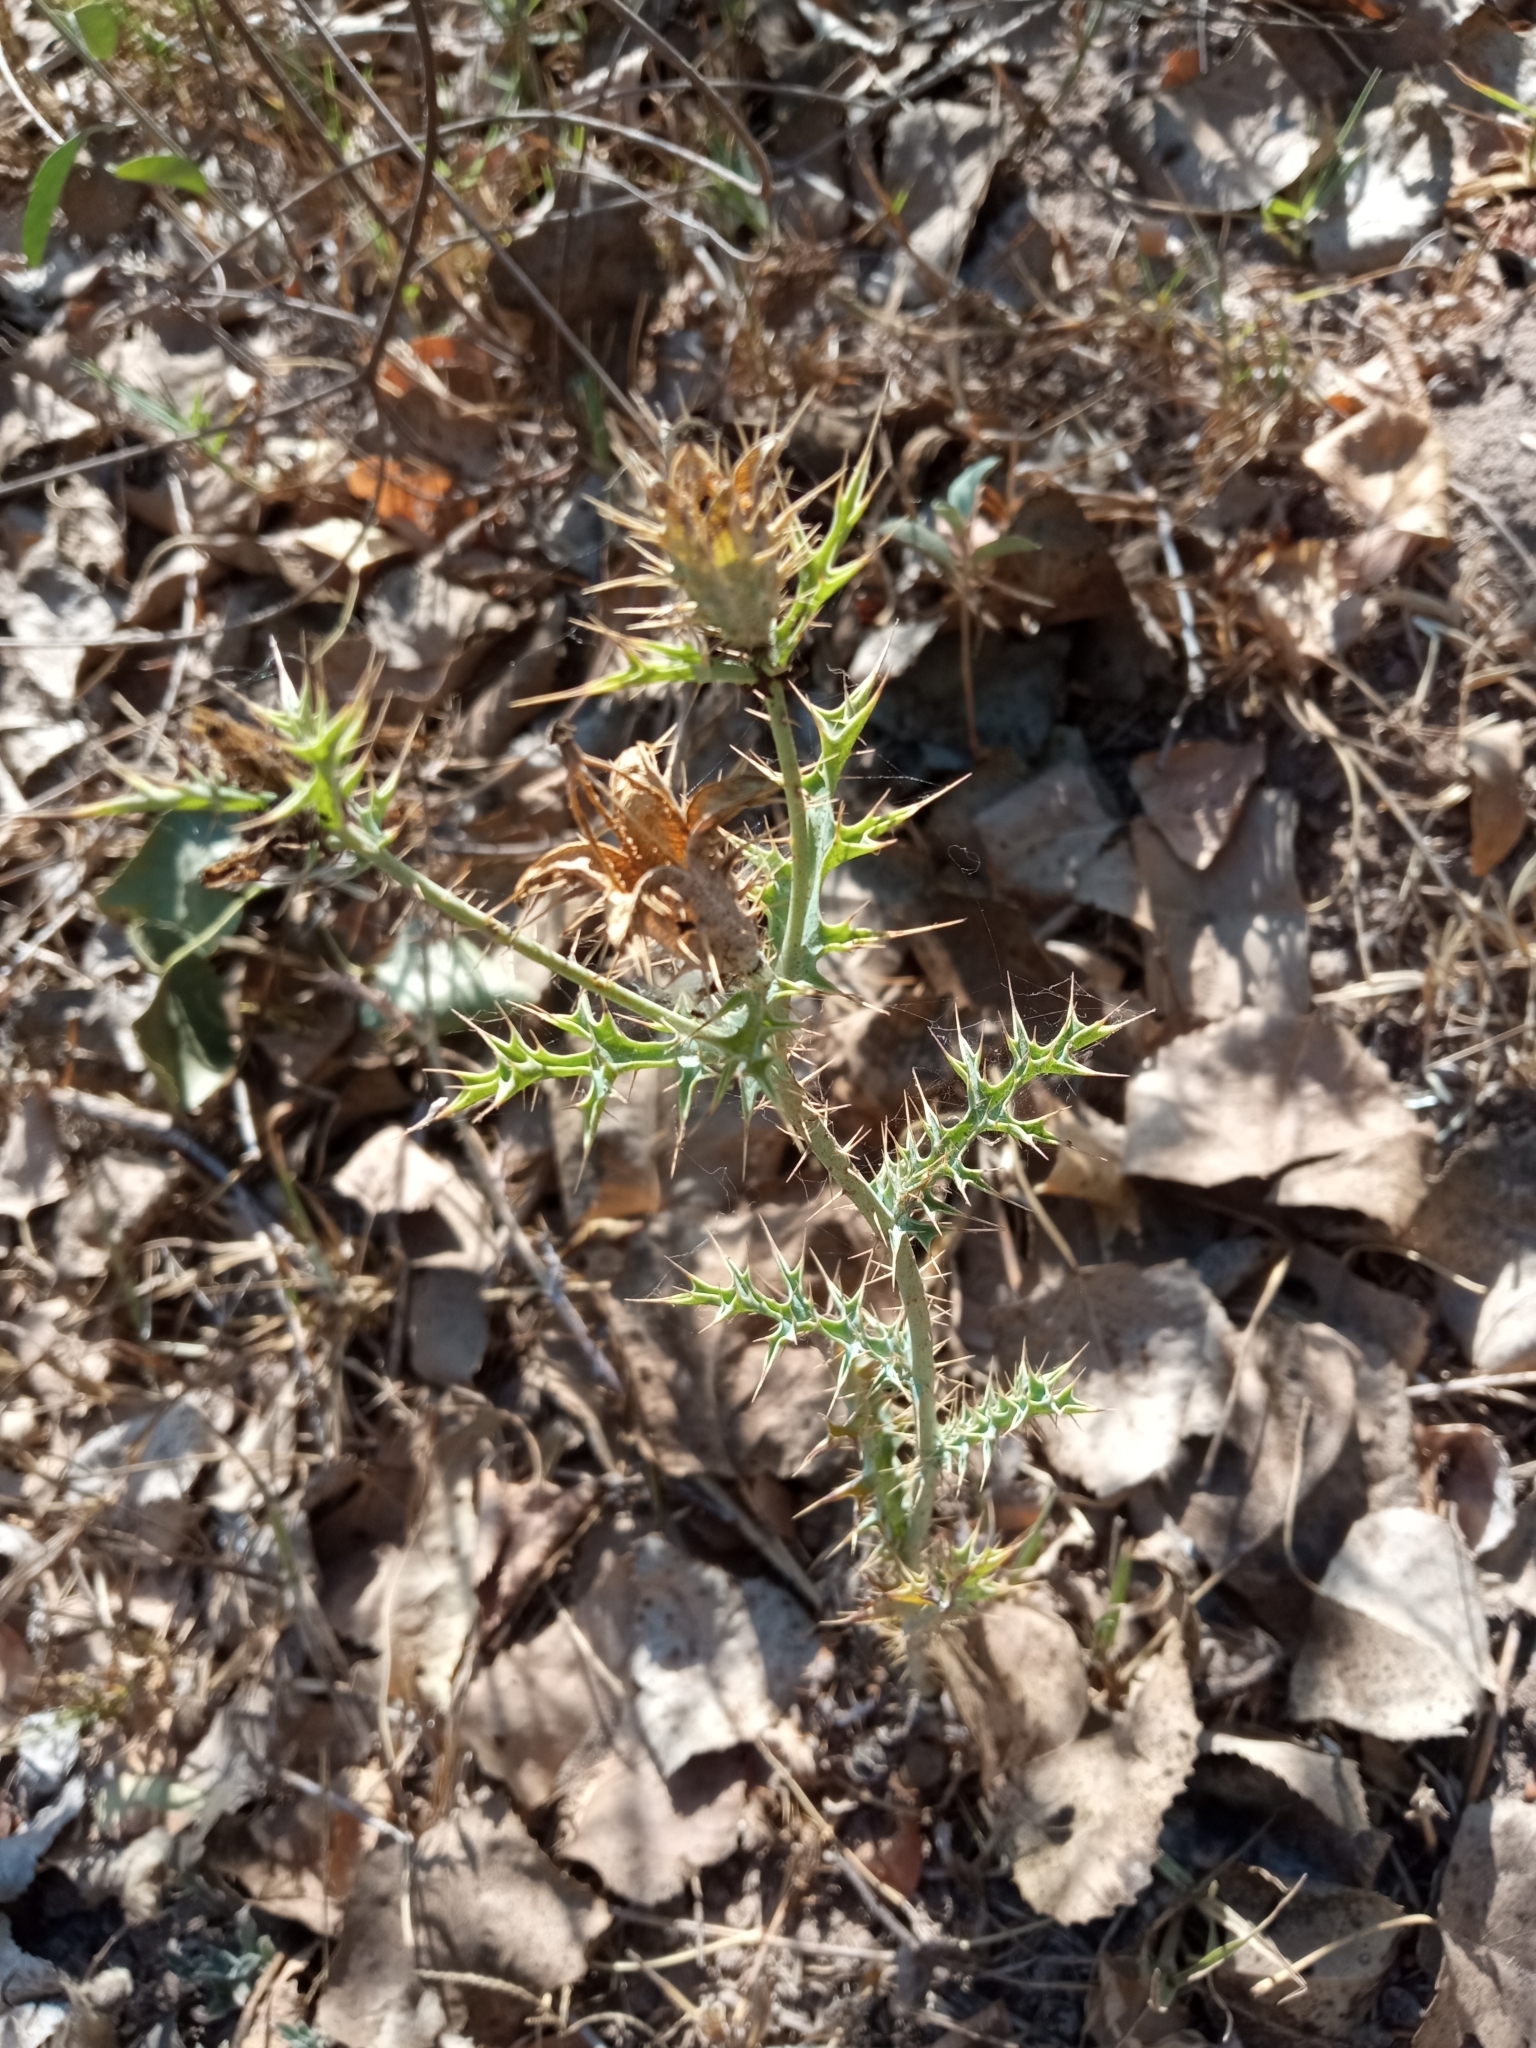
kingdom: Plantae
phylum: Tracheophyta
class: Magnoliopsida
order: Ranunculales
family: Papaveraceae
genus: Argemone
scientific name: Argemone ochroleuca
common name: White-flower mexican-poppy
